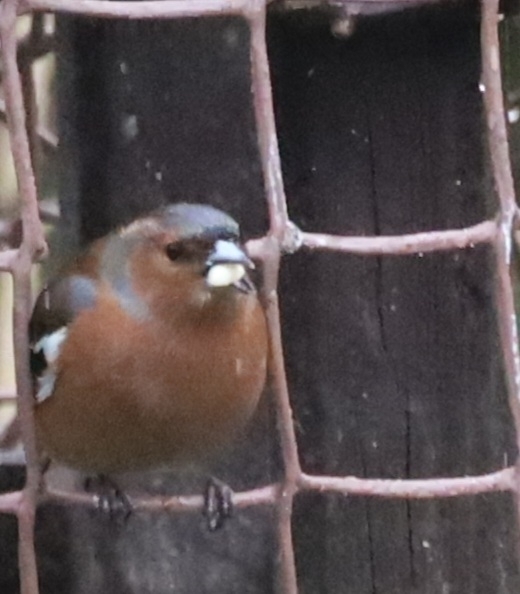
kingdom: Animalia
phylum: Chordata
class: Aves
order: Passeriformes
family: Fringillidae
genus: Fringilla
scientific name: Fringilla coelebs
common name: Common chaffinch
